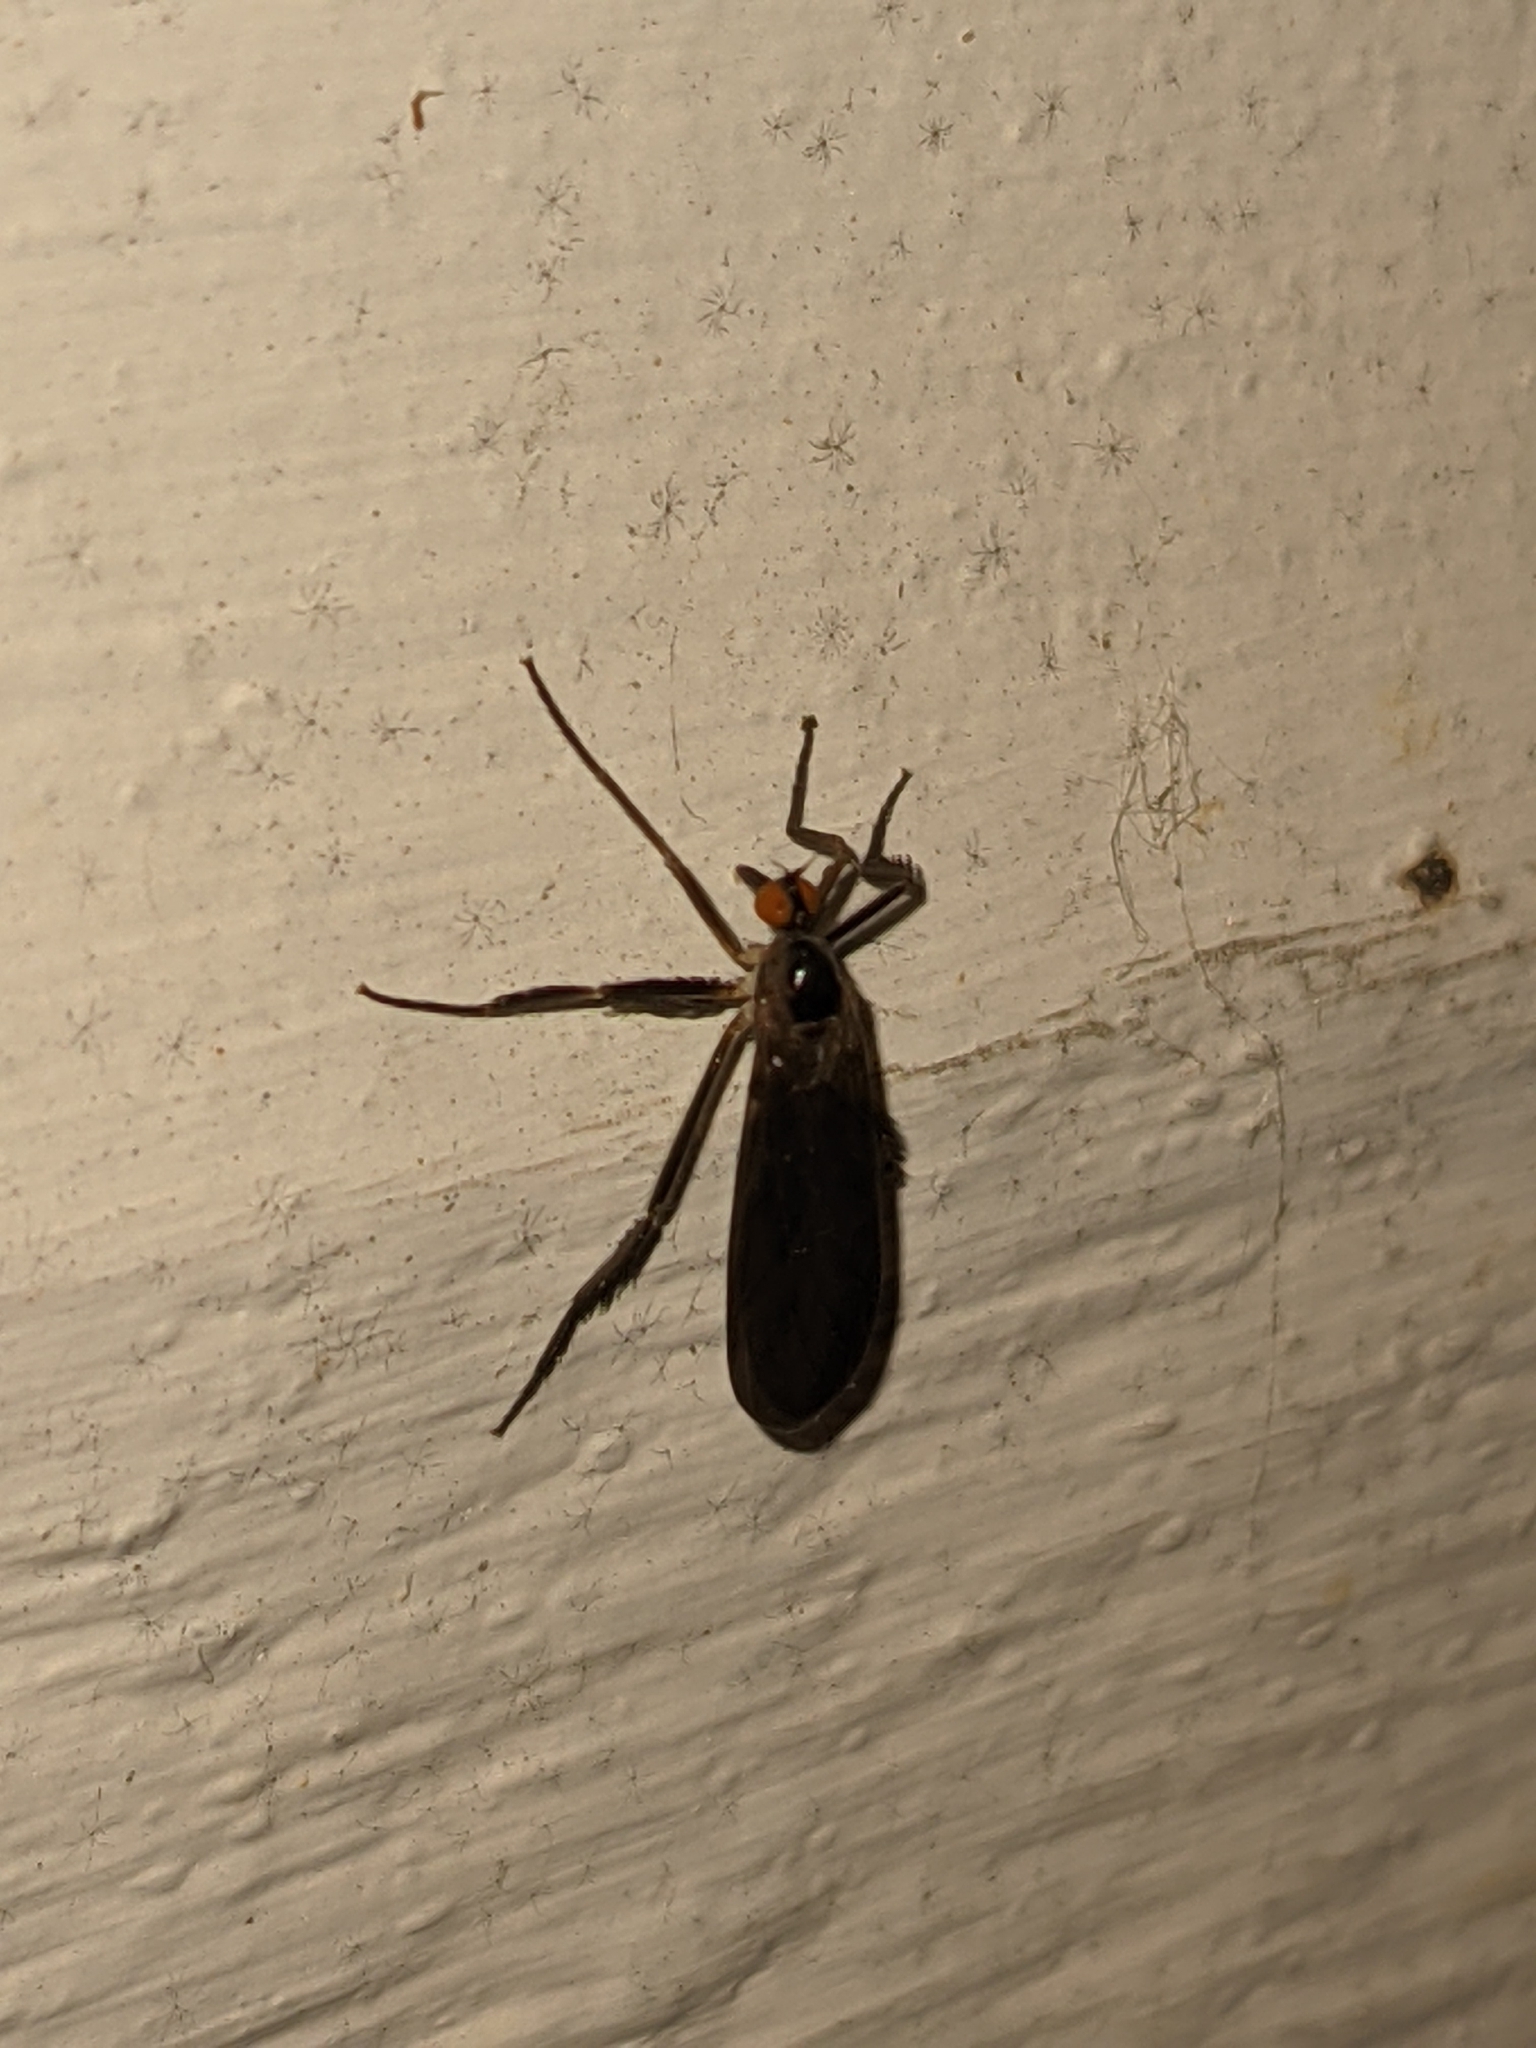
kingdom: Animalia
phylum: Arthropoda
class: Insecta
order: Diptera
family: Empididae
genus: Rhamphomyia
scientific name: Rhamphomyia longicauda
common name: Long-tailed dance fly
